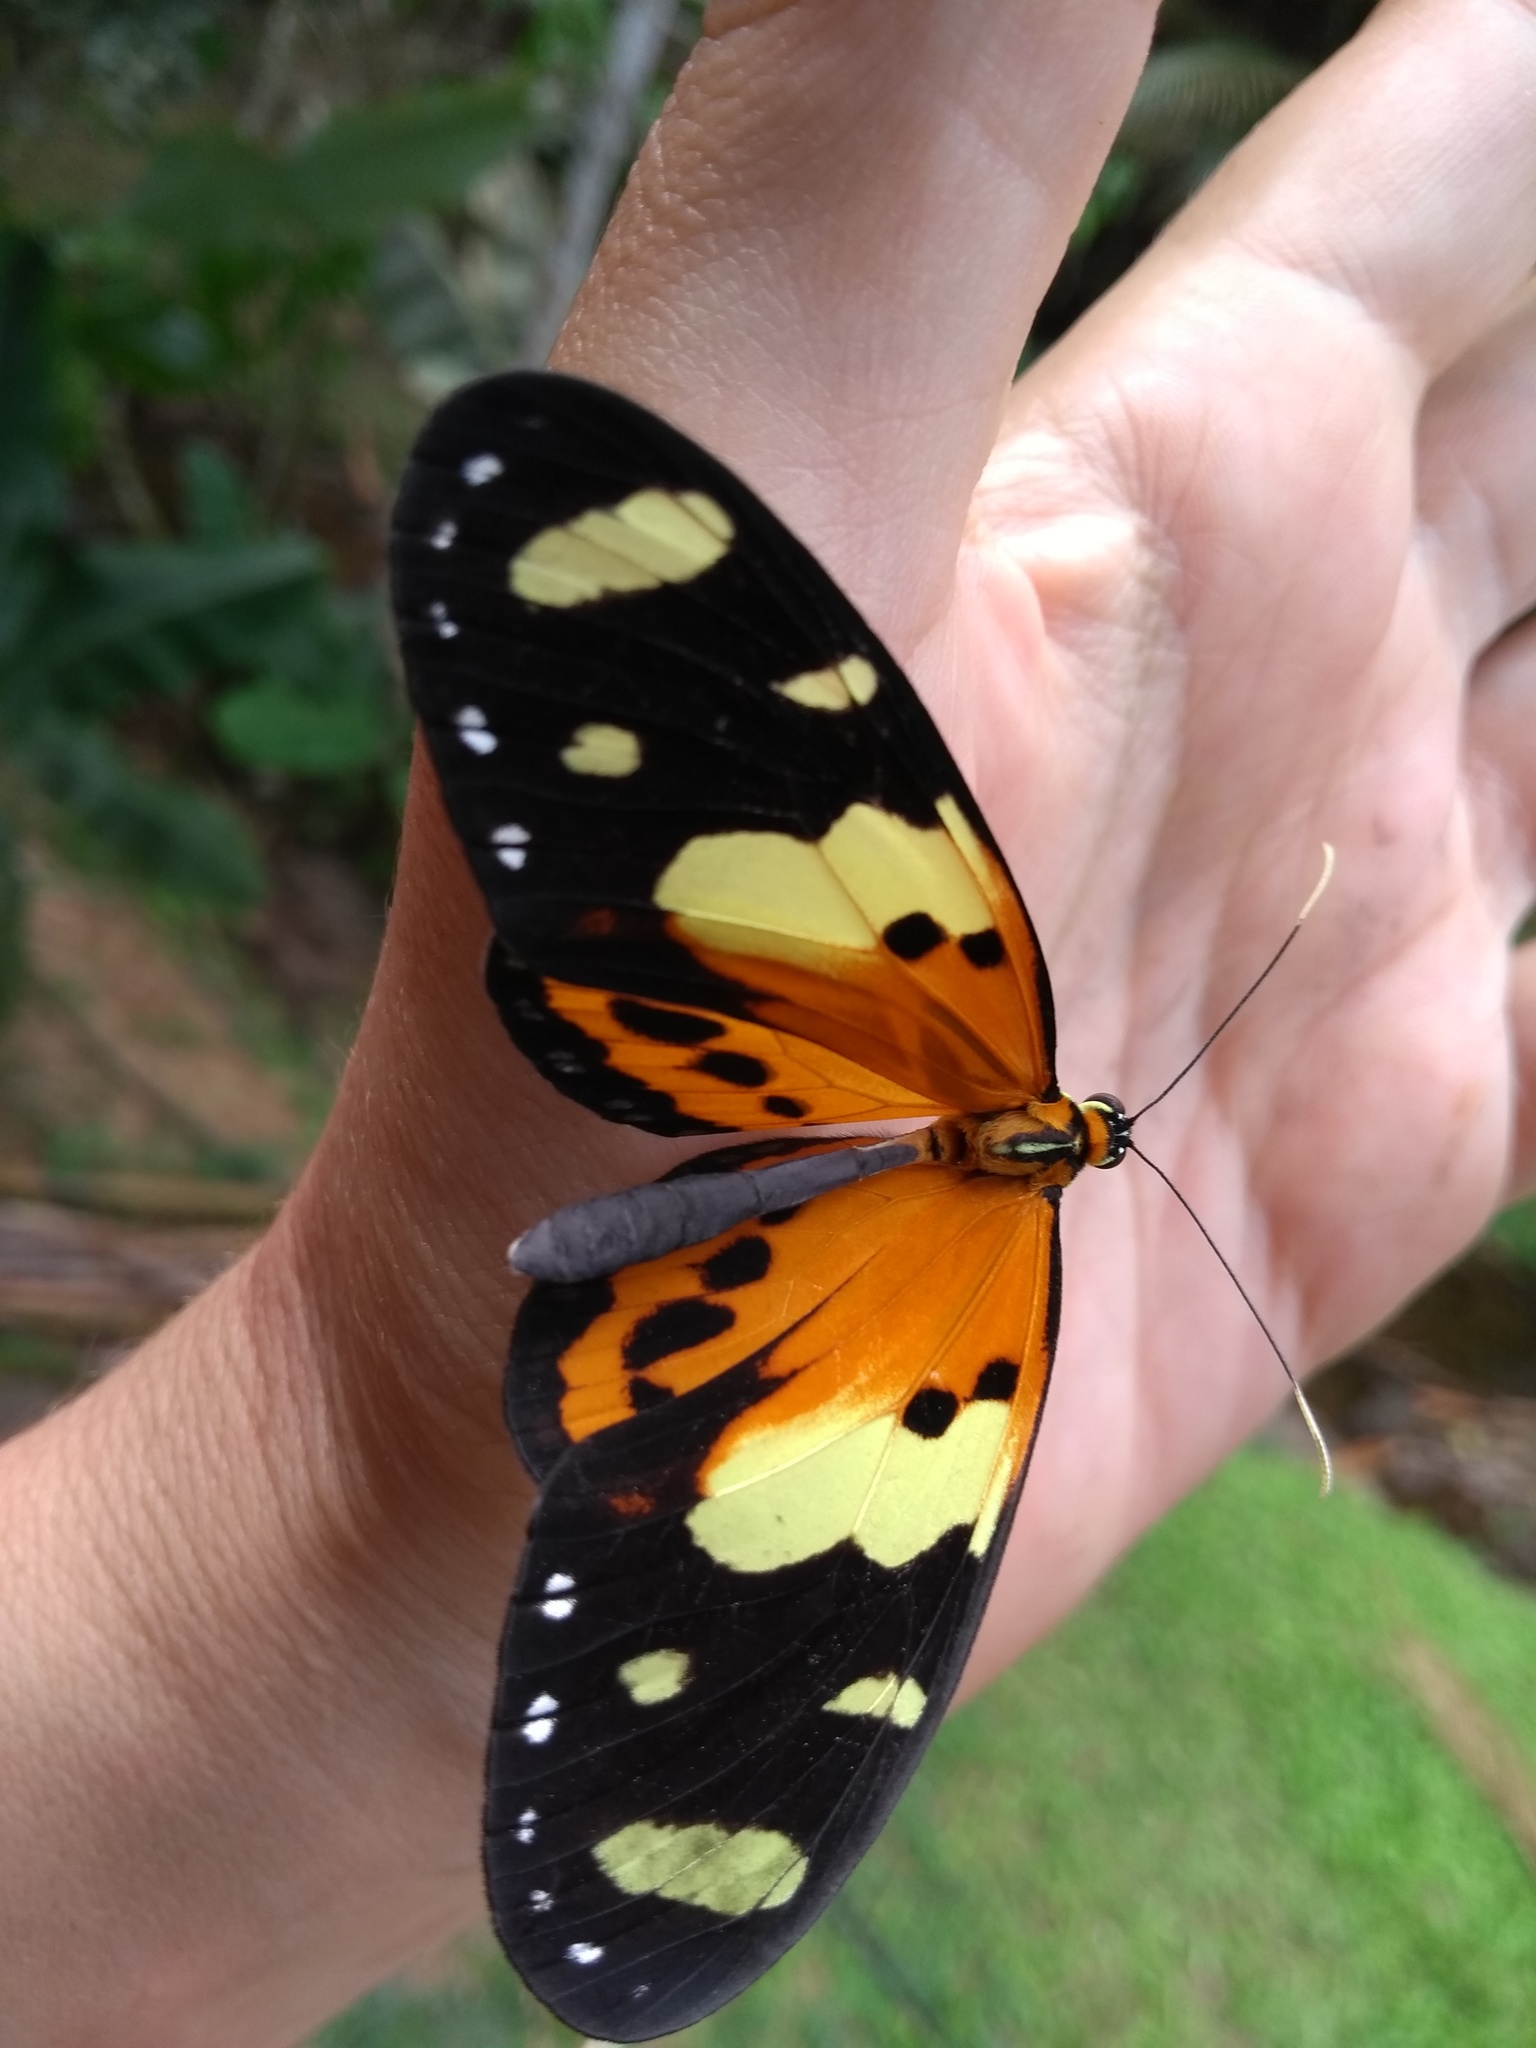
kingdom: Animalia
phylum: Arthropoda
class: Insecta
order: Lepidoptera
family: Nymphalidae
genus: Melinaea
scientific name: Melinaea ludovica
